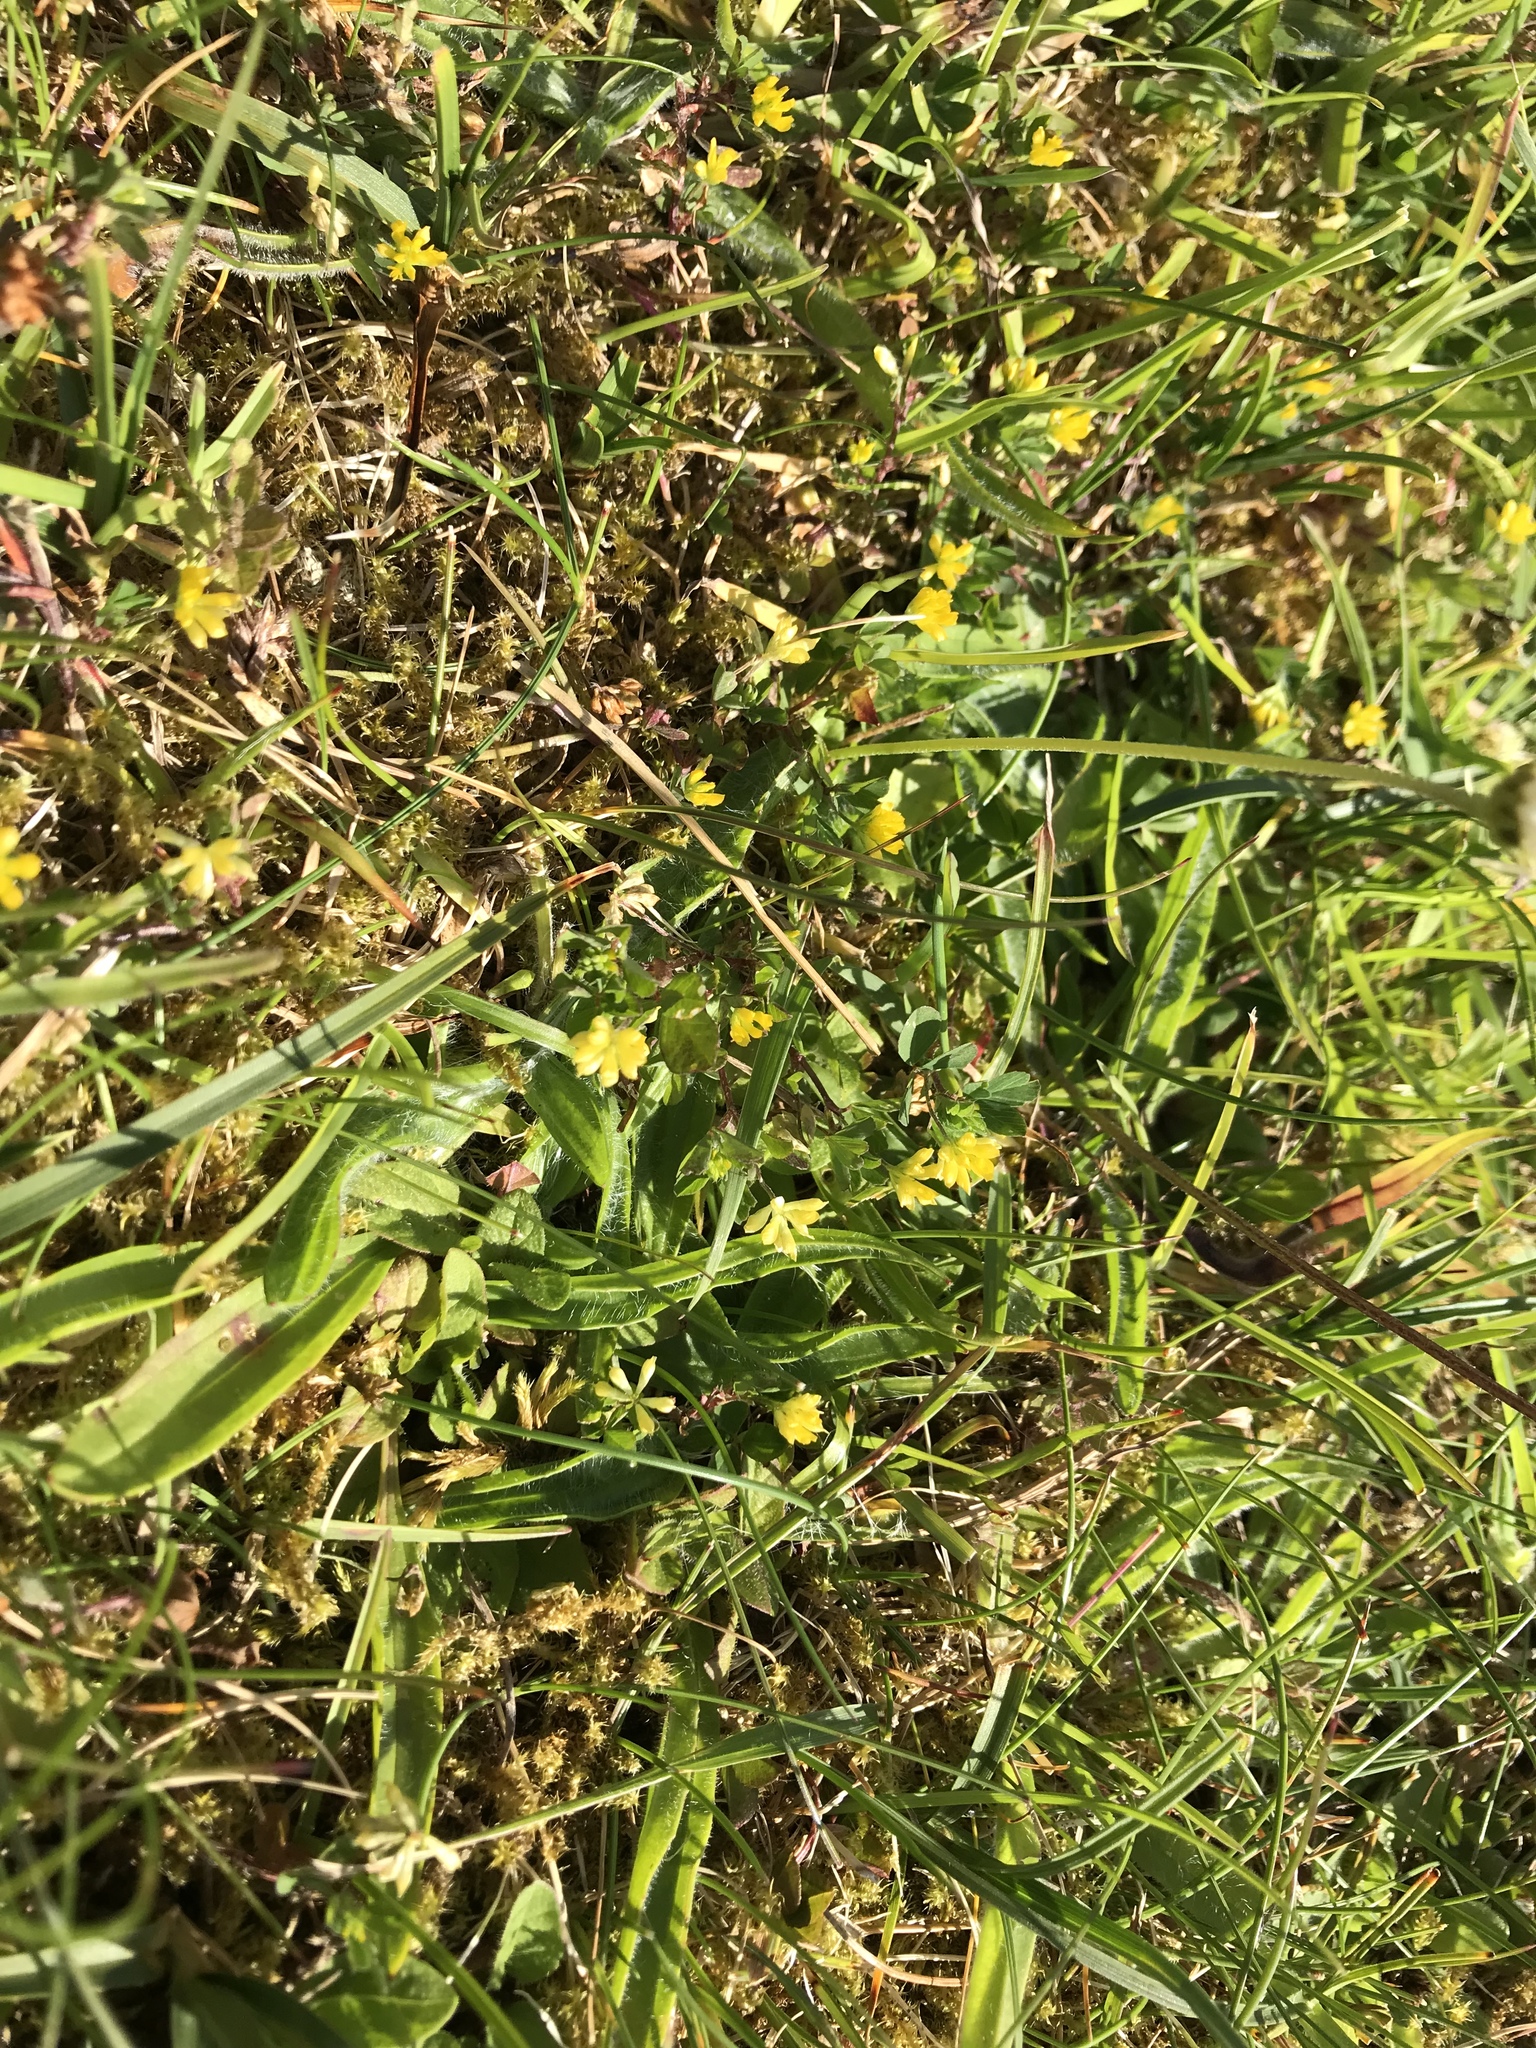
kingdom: Plantae
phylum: Tracheophyta
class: Magnoliopsida
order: Fabales
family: Fabaceae
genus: Trifolium
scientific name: Trifolium dubium
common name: Suckling clover
